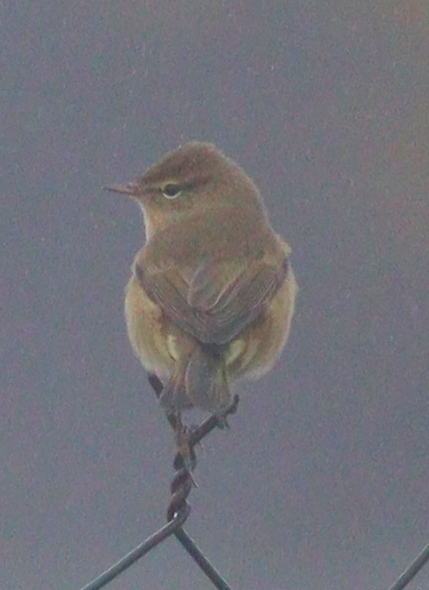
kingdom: Animalia
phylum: Chordata
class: Aves
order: Passeriformes
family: Phylloscopidae
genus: Phylloscopus
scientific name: Phylloscopus collybita
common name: Common chiffchaff
